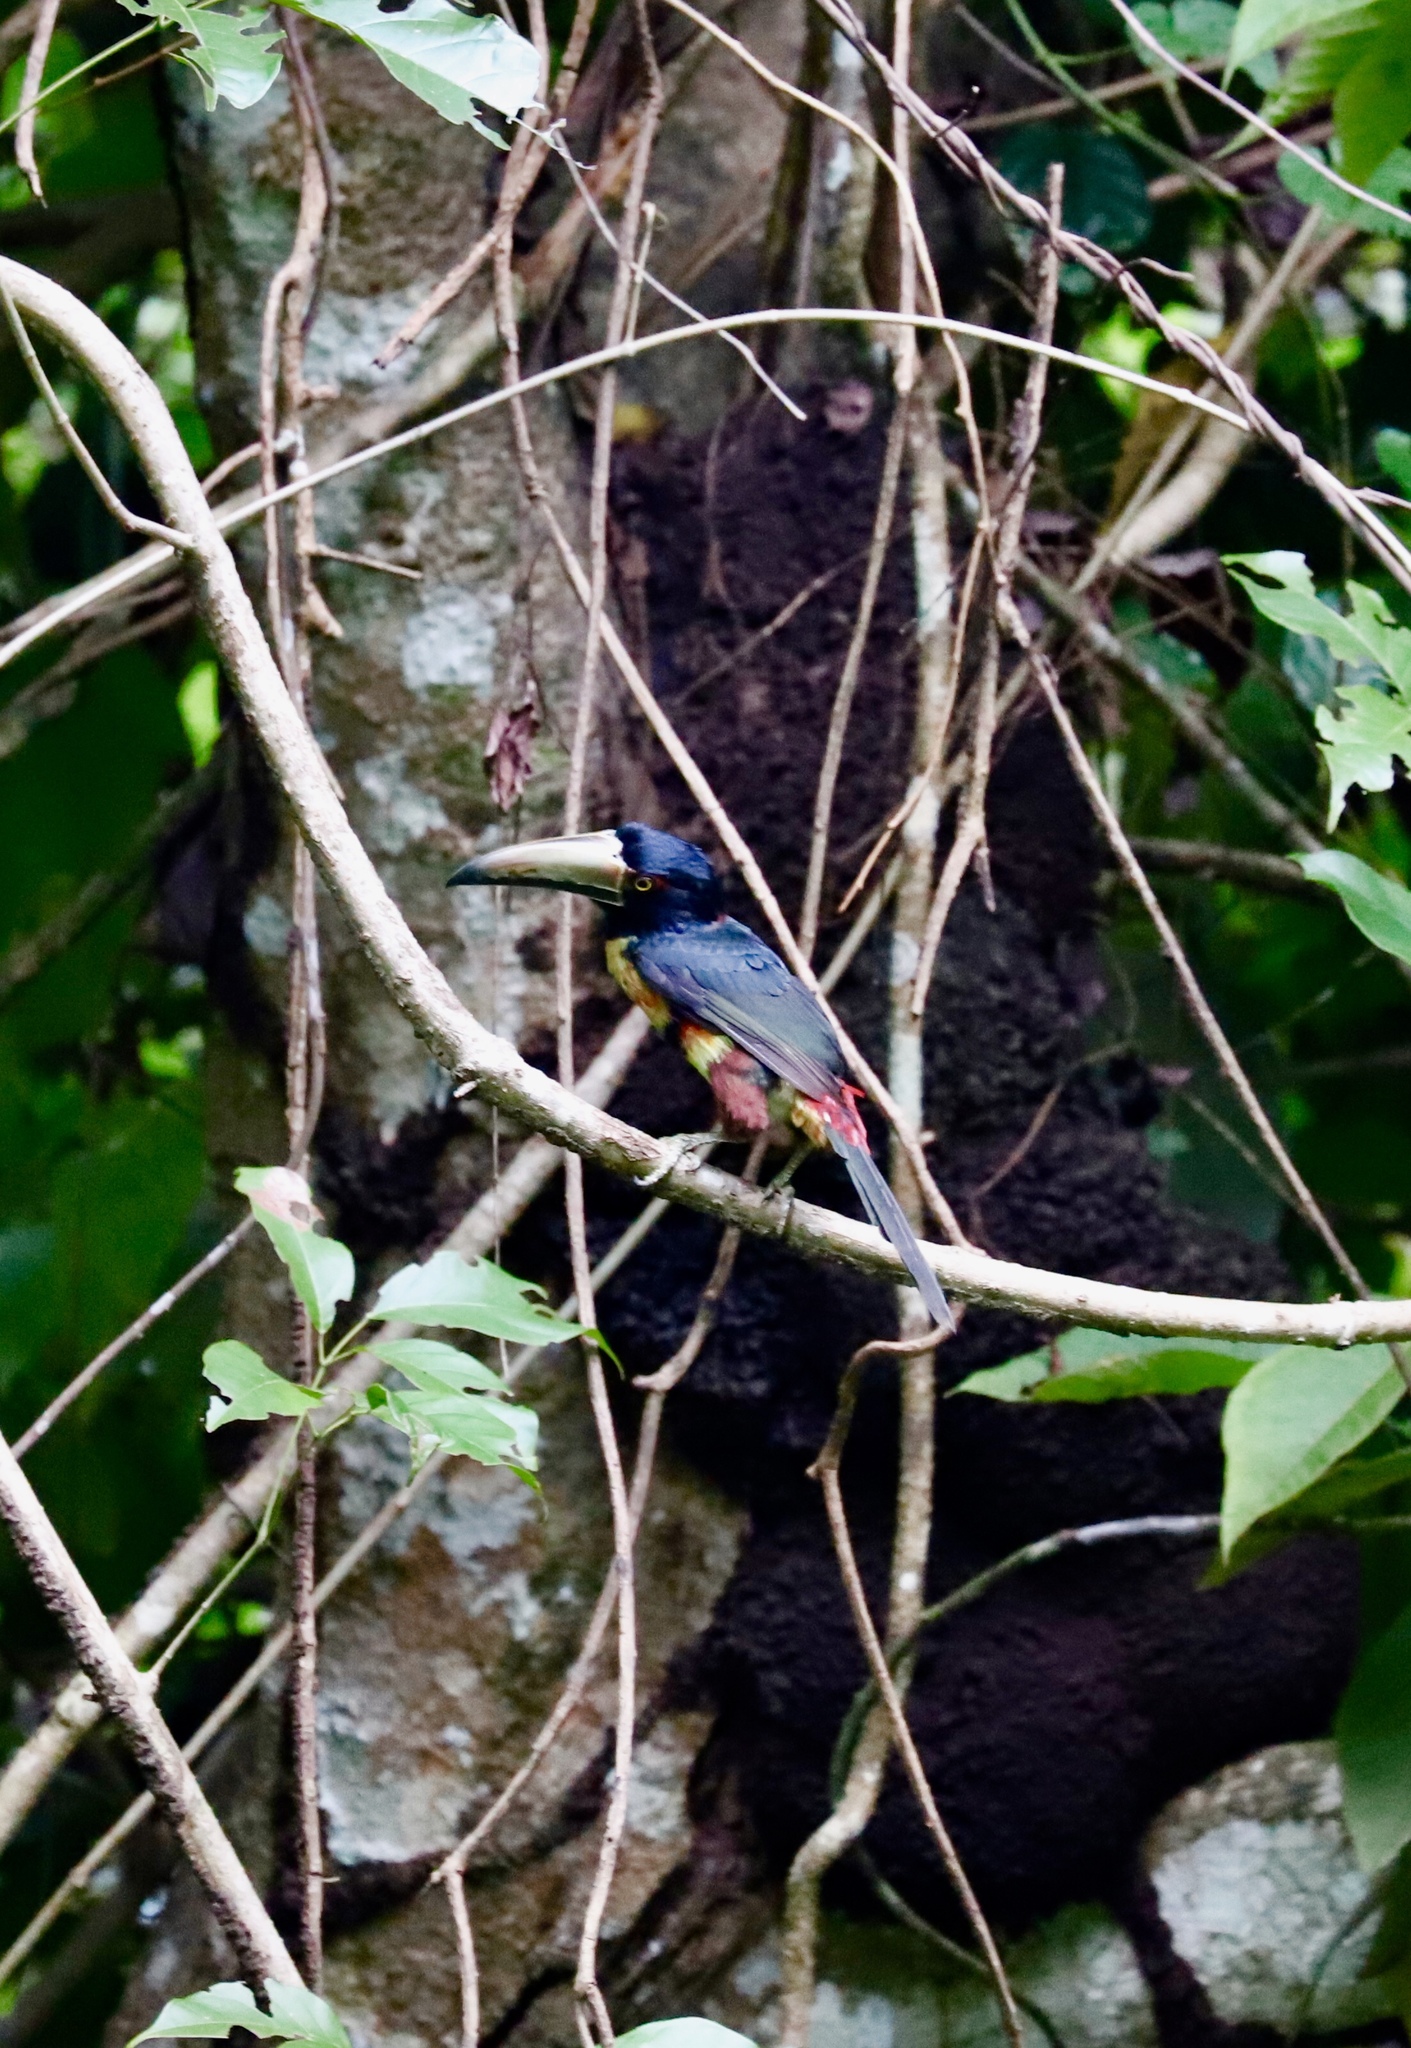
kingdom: Animalia
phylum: Chordata
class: Aves
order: Piciformes
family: Ramphastidae
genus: Pteroglossus
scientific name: Pteroglossus torquatus
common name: Collared aracari
